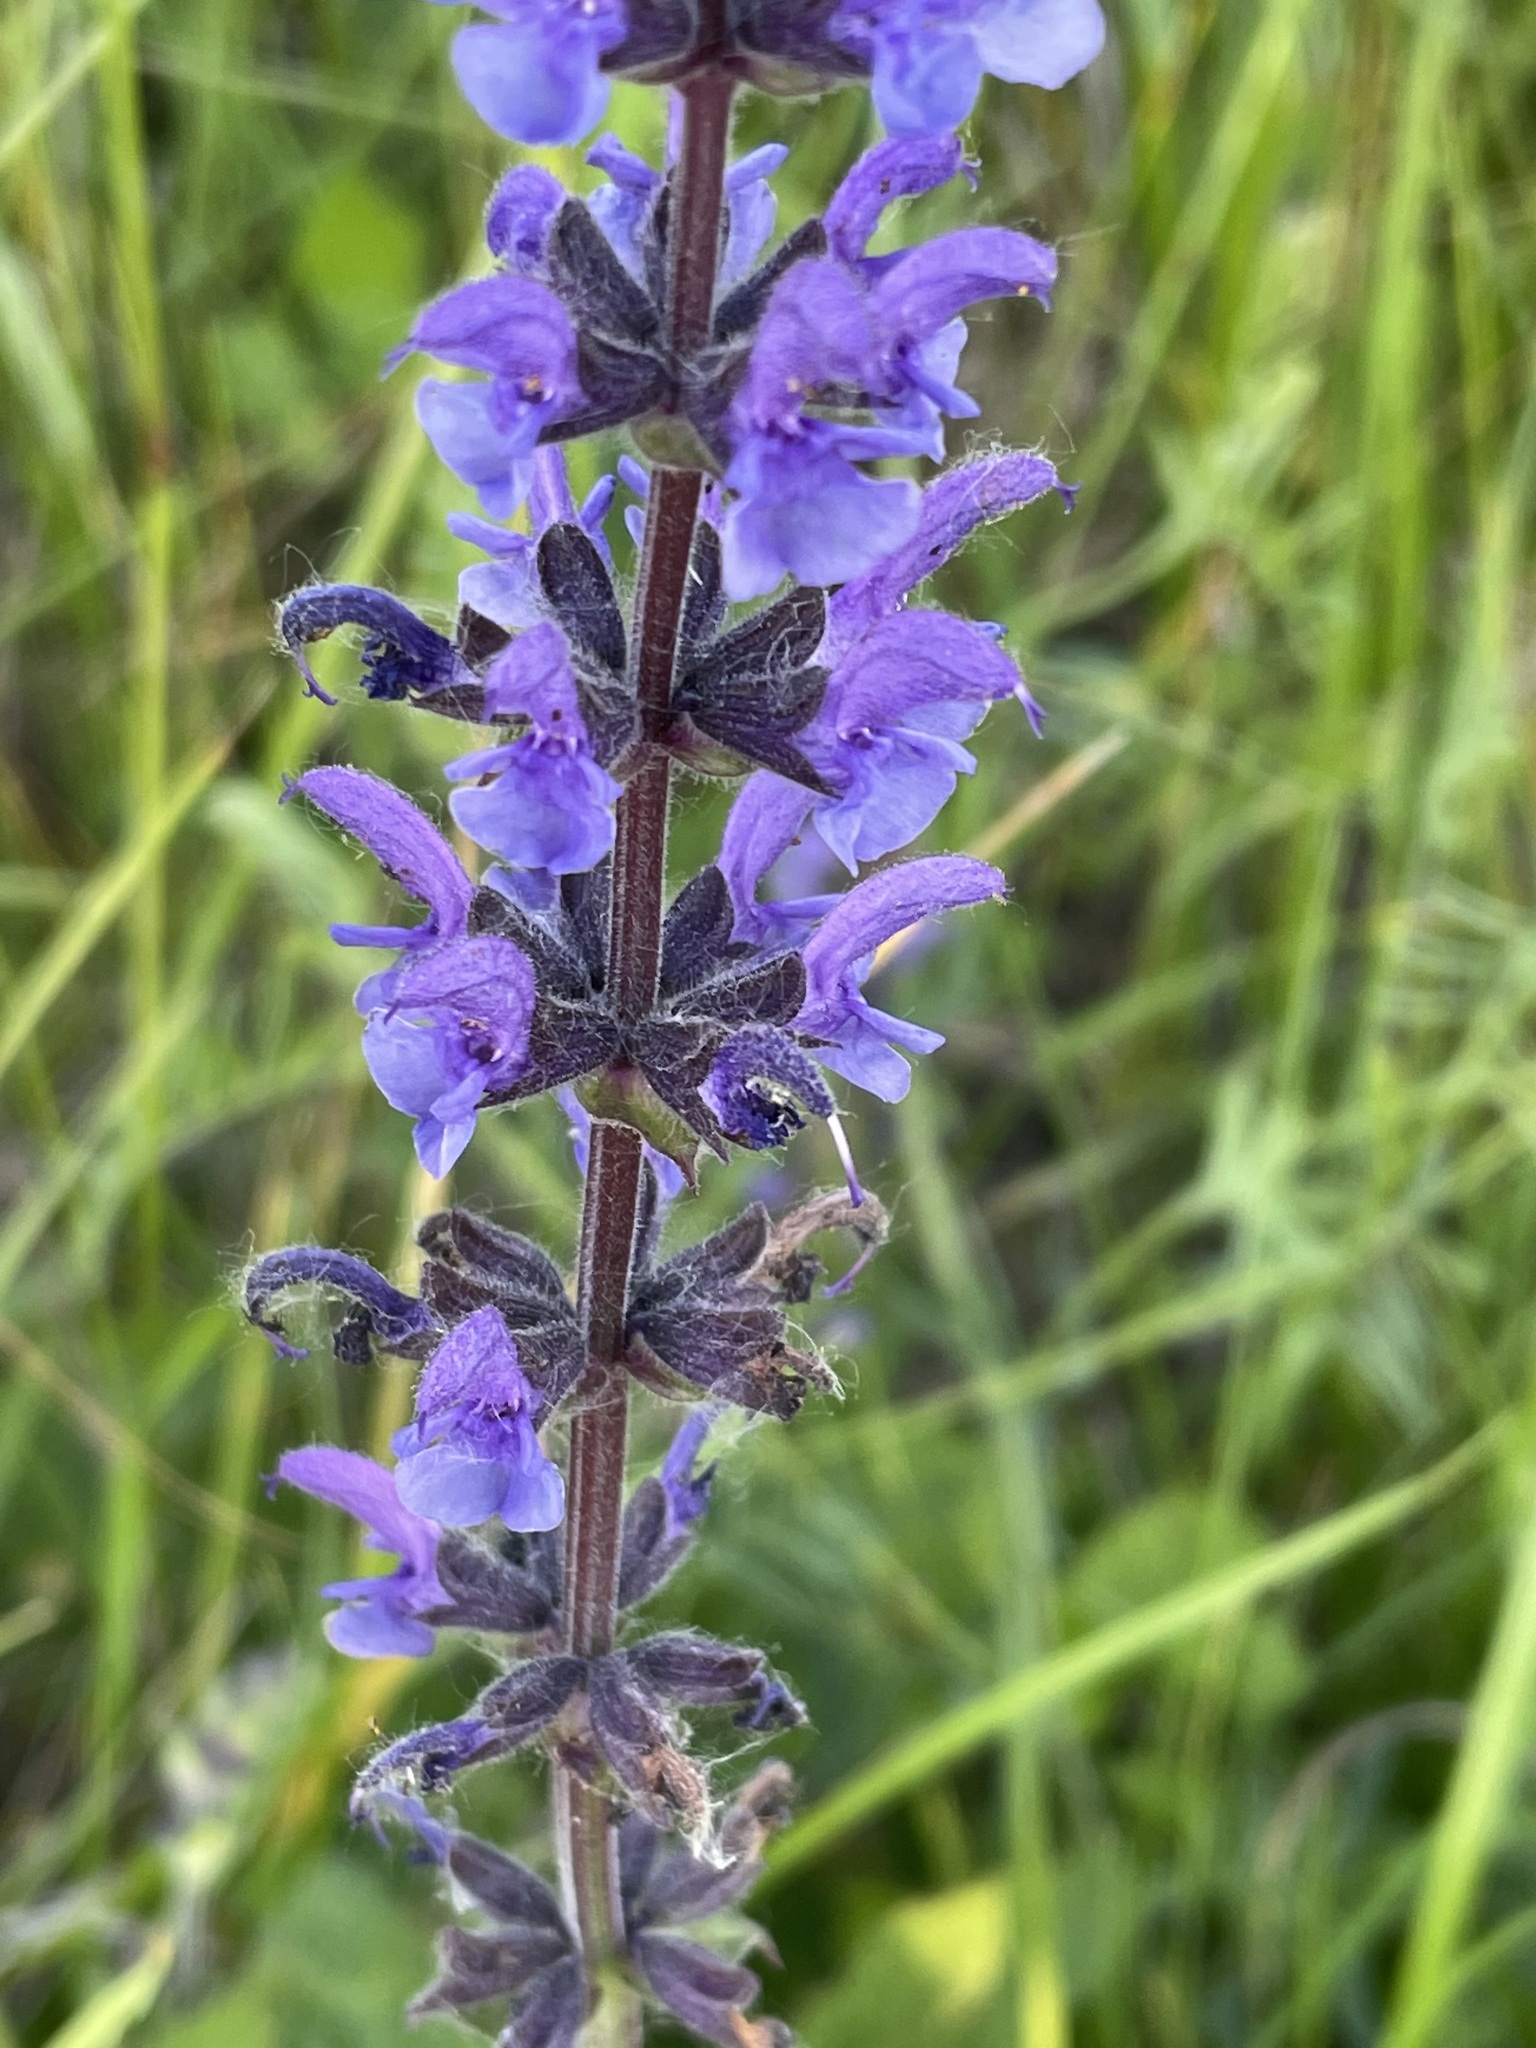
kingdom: Plantae
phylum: Tracheophyta
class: Magnoliopsida
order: Lamiales
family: Lamiaceae
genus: Salvia
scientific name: Salvia dumetorum
